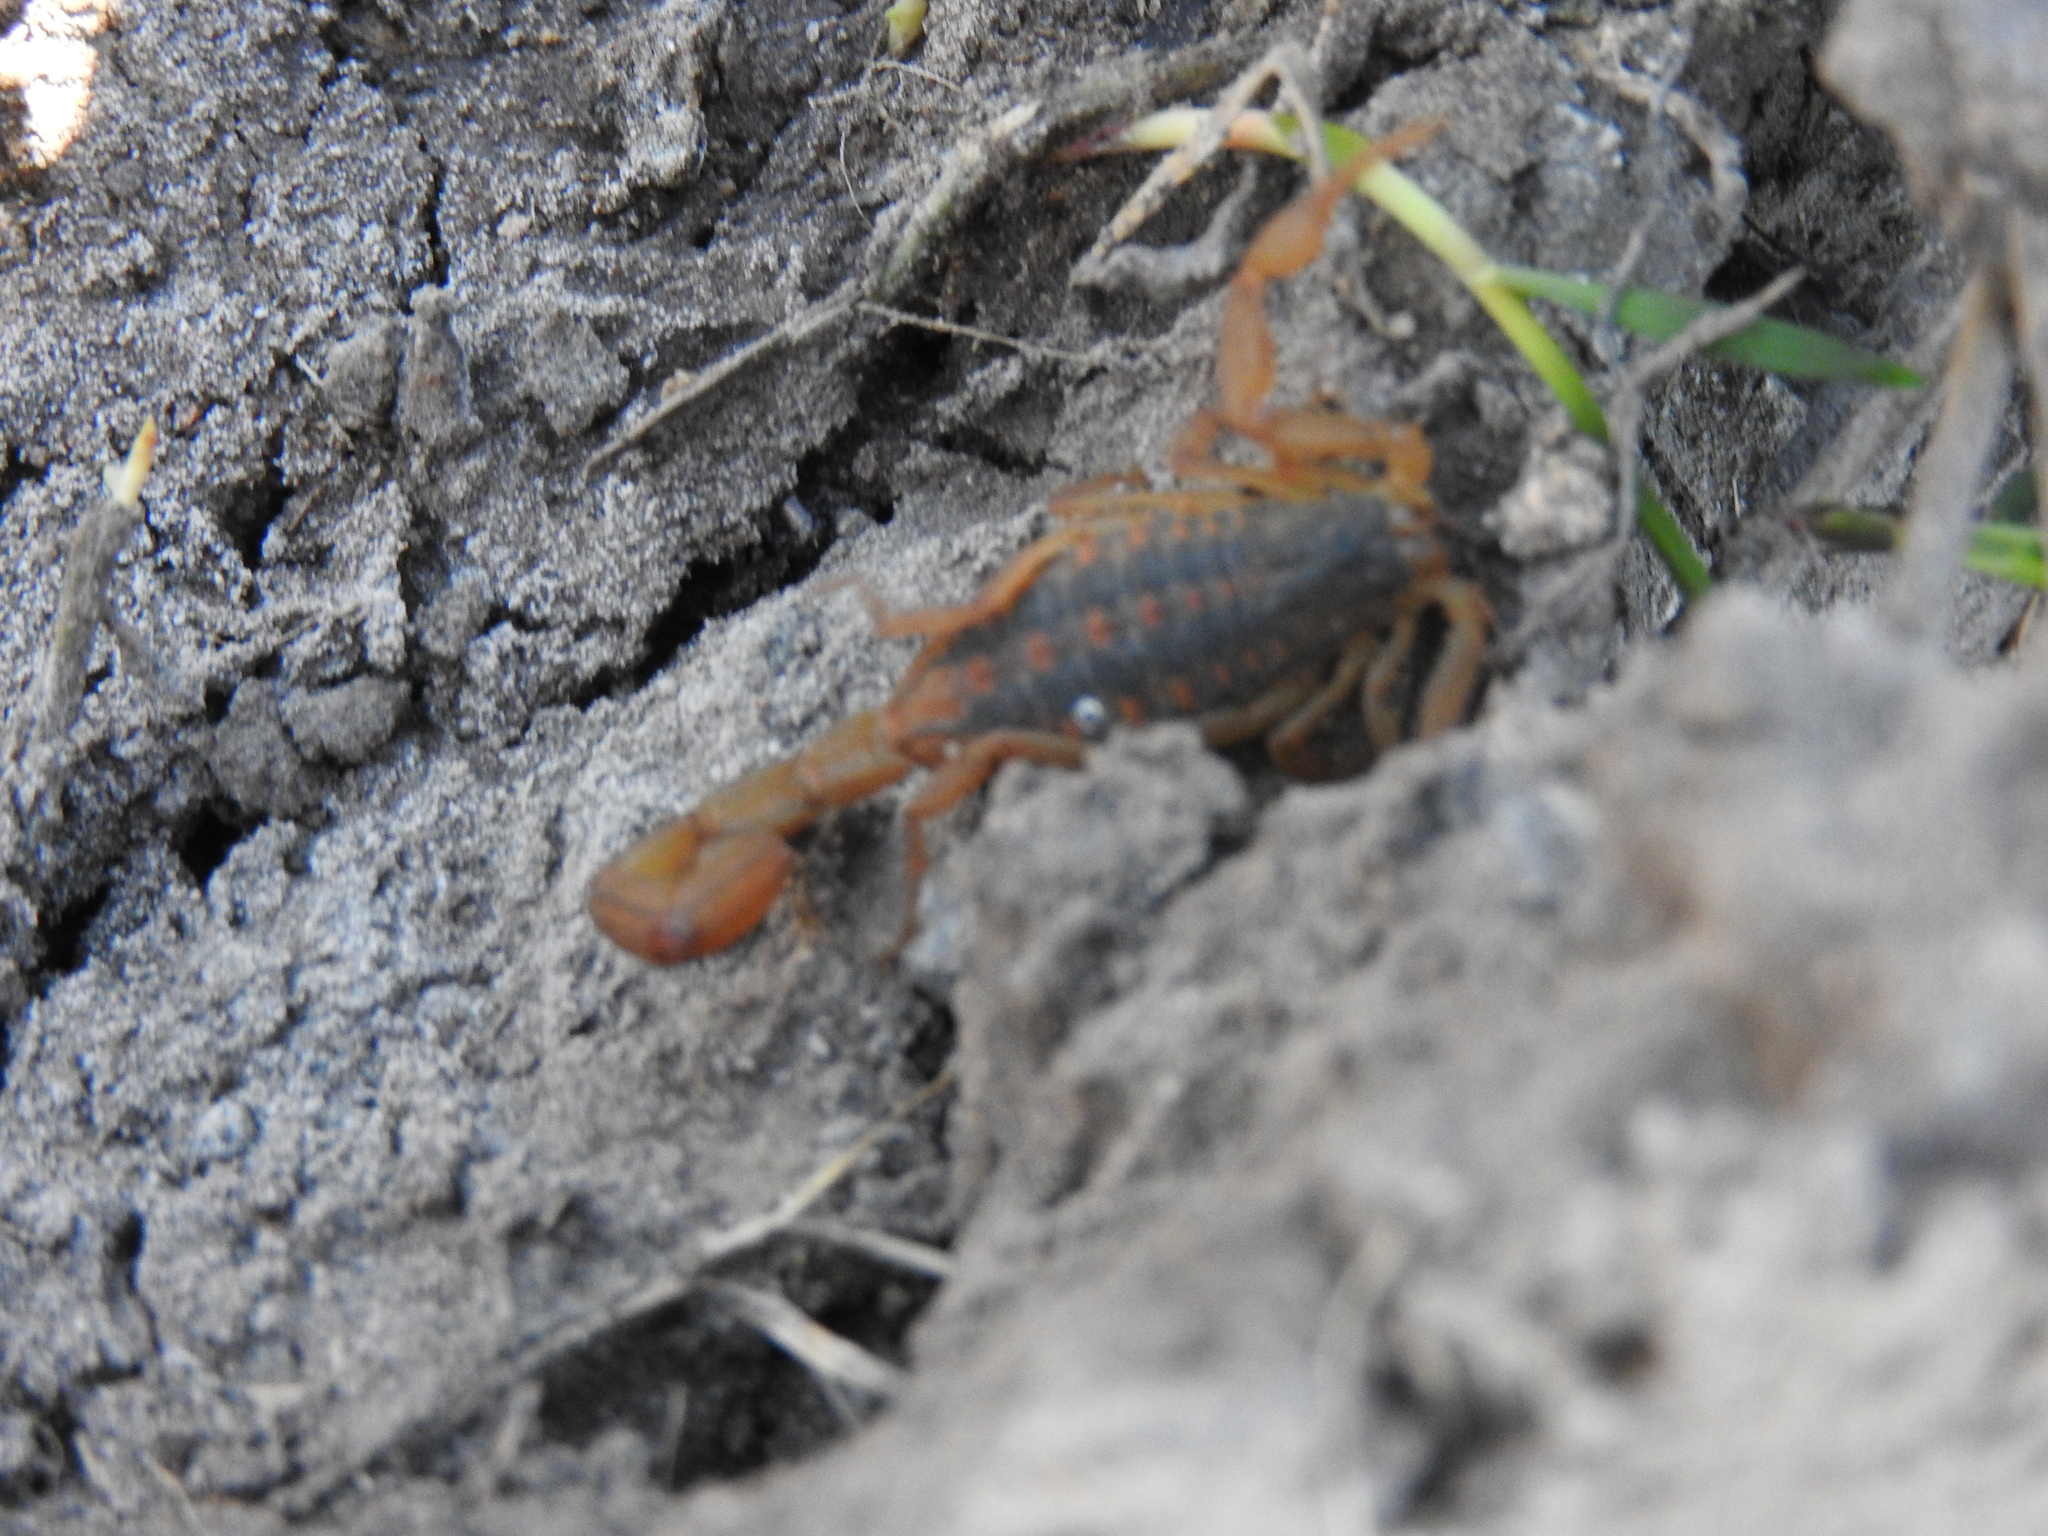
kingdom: Animalia
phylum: Arthropoda
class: Arachnida
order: Scorpiones
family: Buthidae
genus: Centruroides
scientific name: Centruroides ornatus
